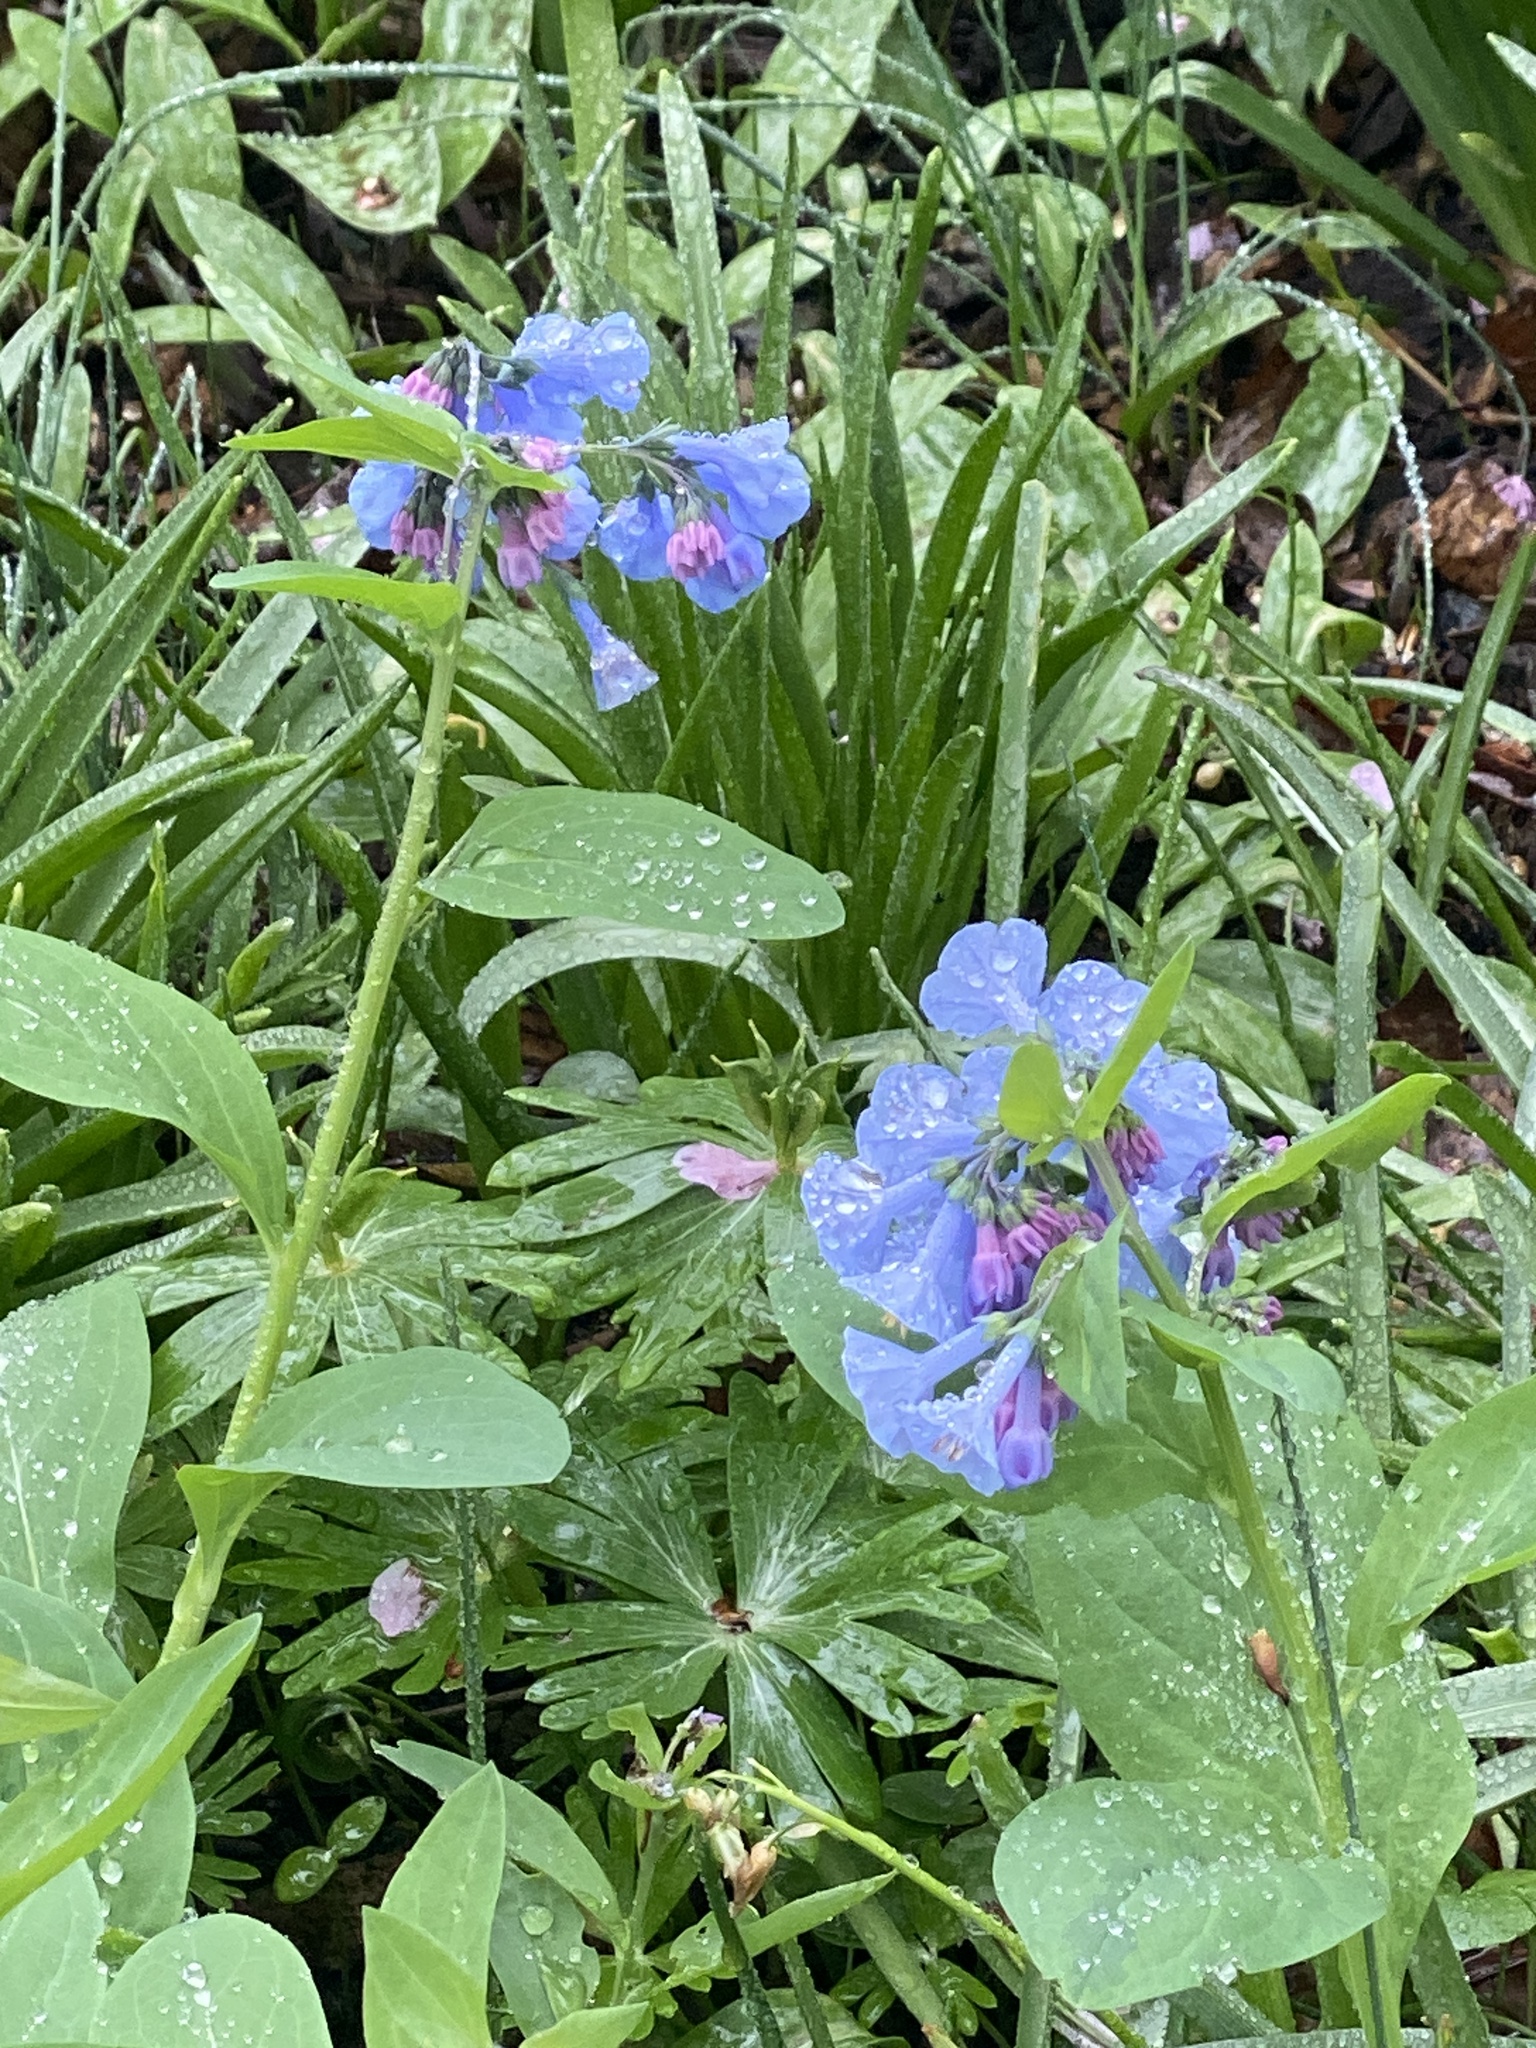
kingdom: Plantae
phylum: Tracheophyta
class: Magnoliopsida
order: Boraginales
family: Boraginaceae
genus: Mertensia
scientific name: Mertensia virginica
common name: Virginia bluebells
